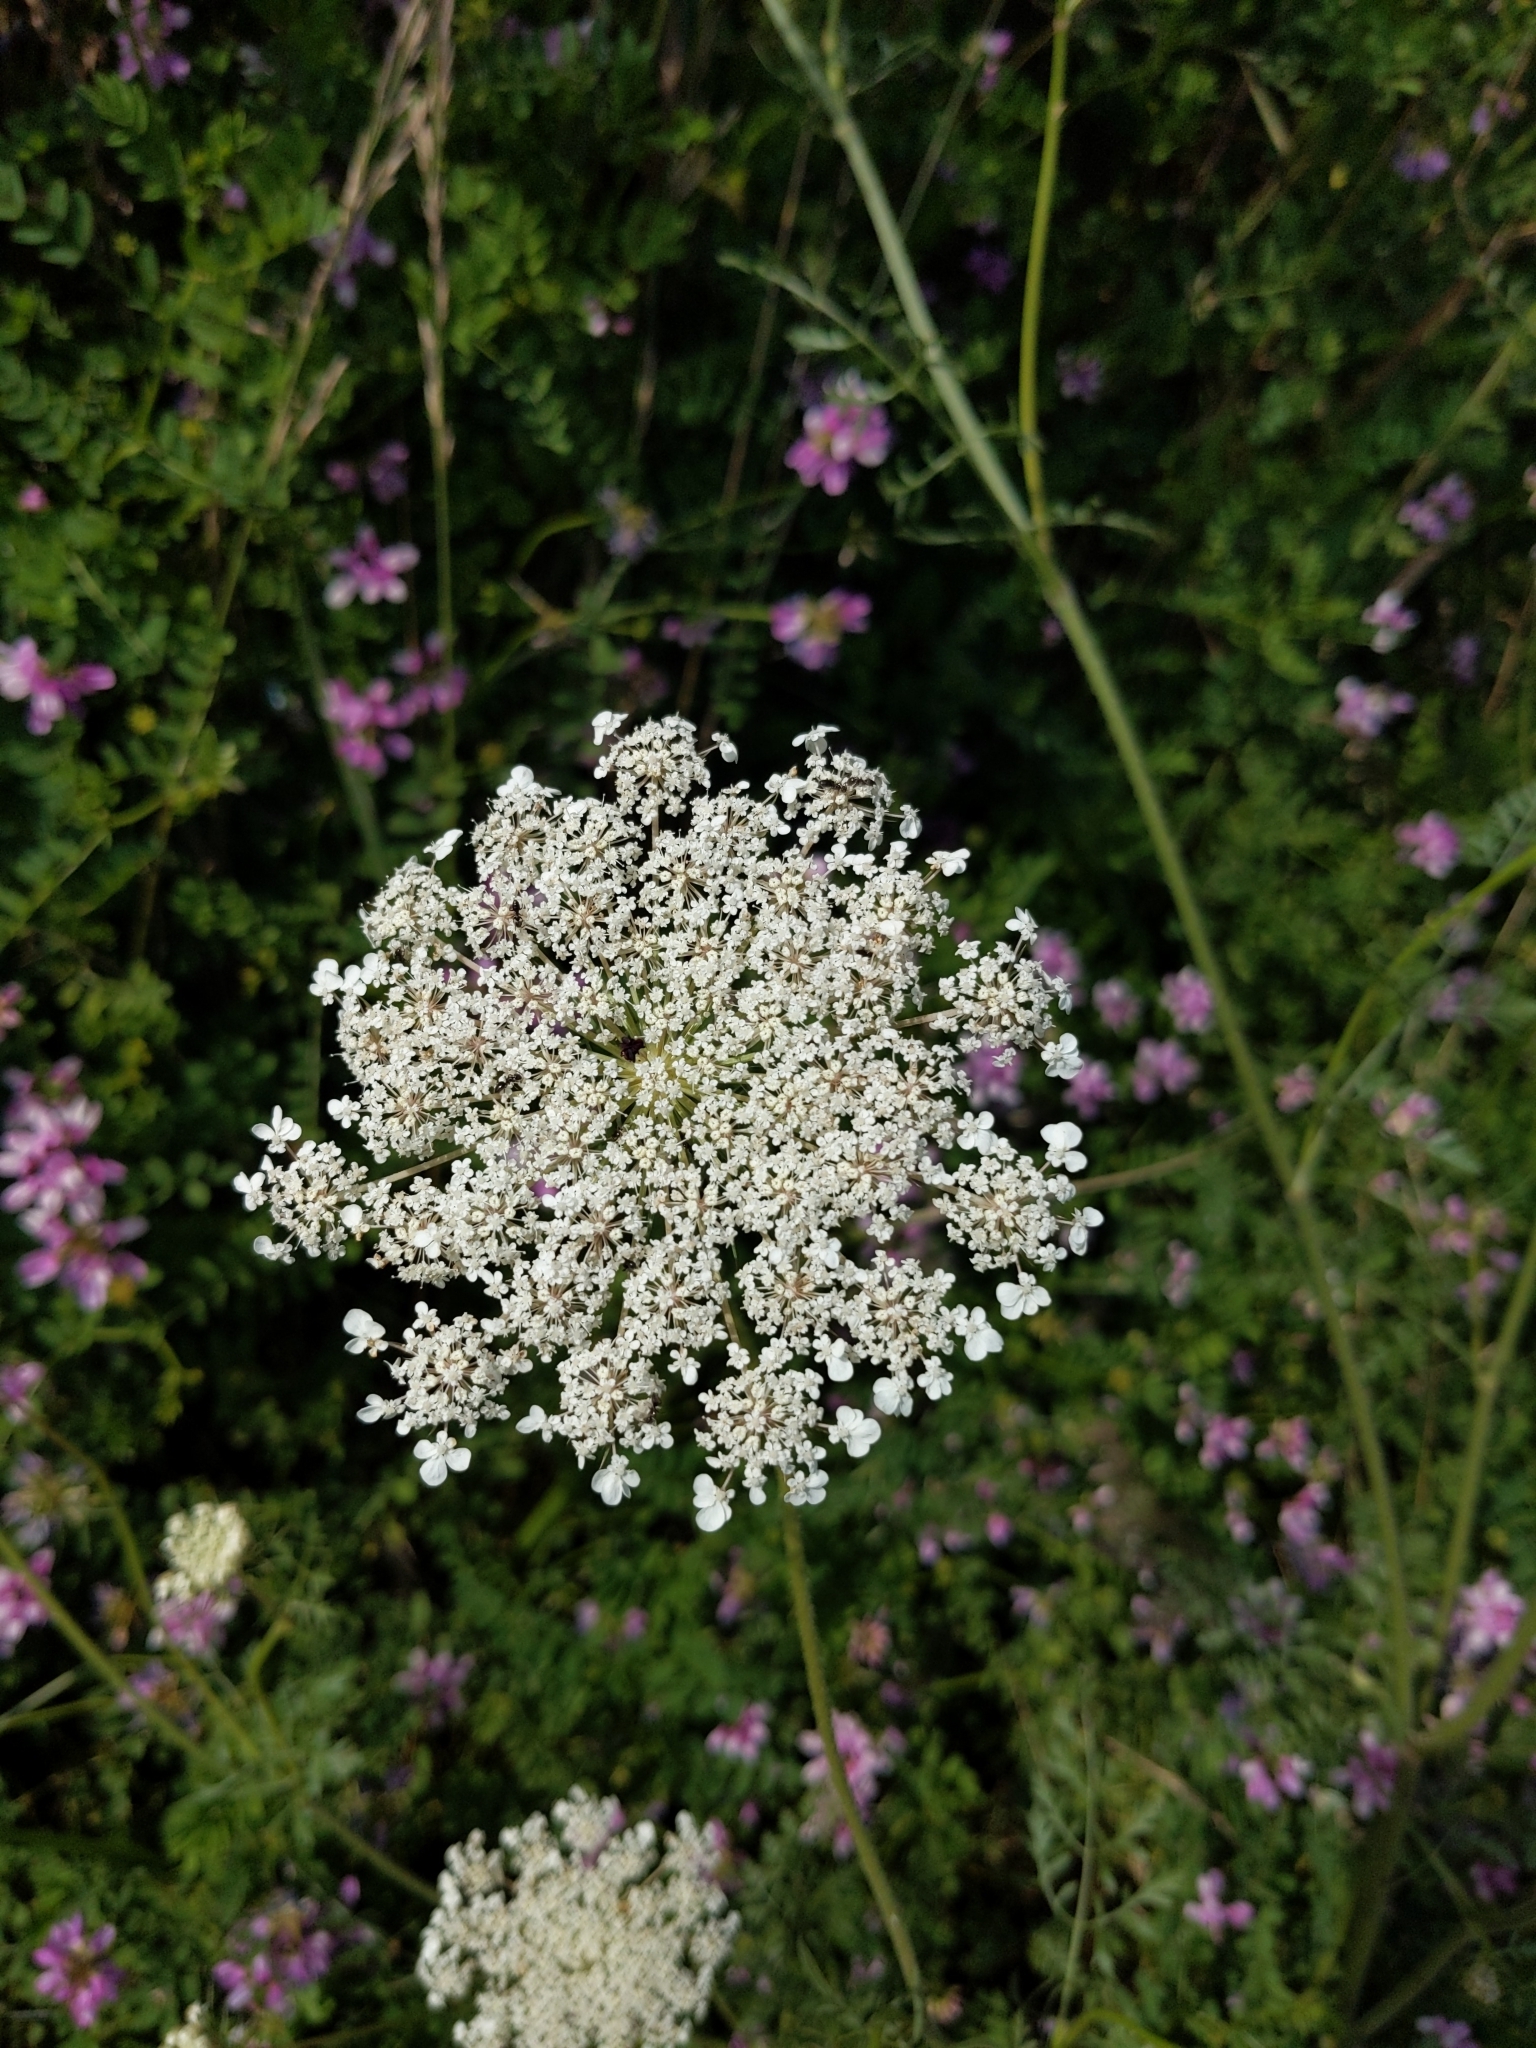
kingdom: Plantae
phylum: Tracheophyta
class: Magnoliopsida
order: Apiales
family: Apiaceae
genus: Daucus
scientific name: Daucus carota
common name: Wild carrot
